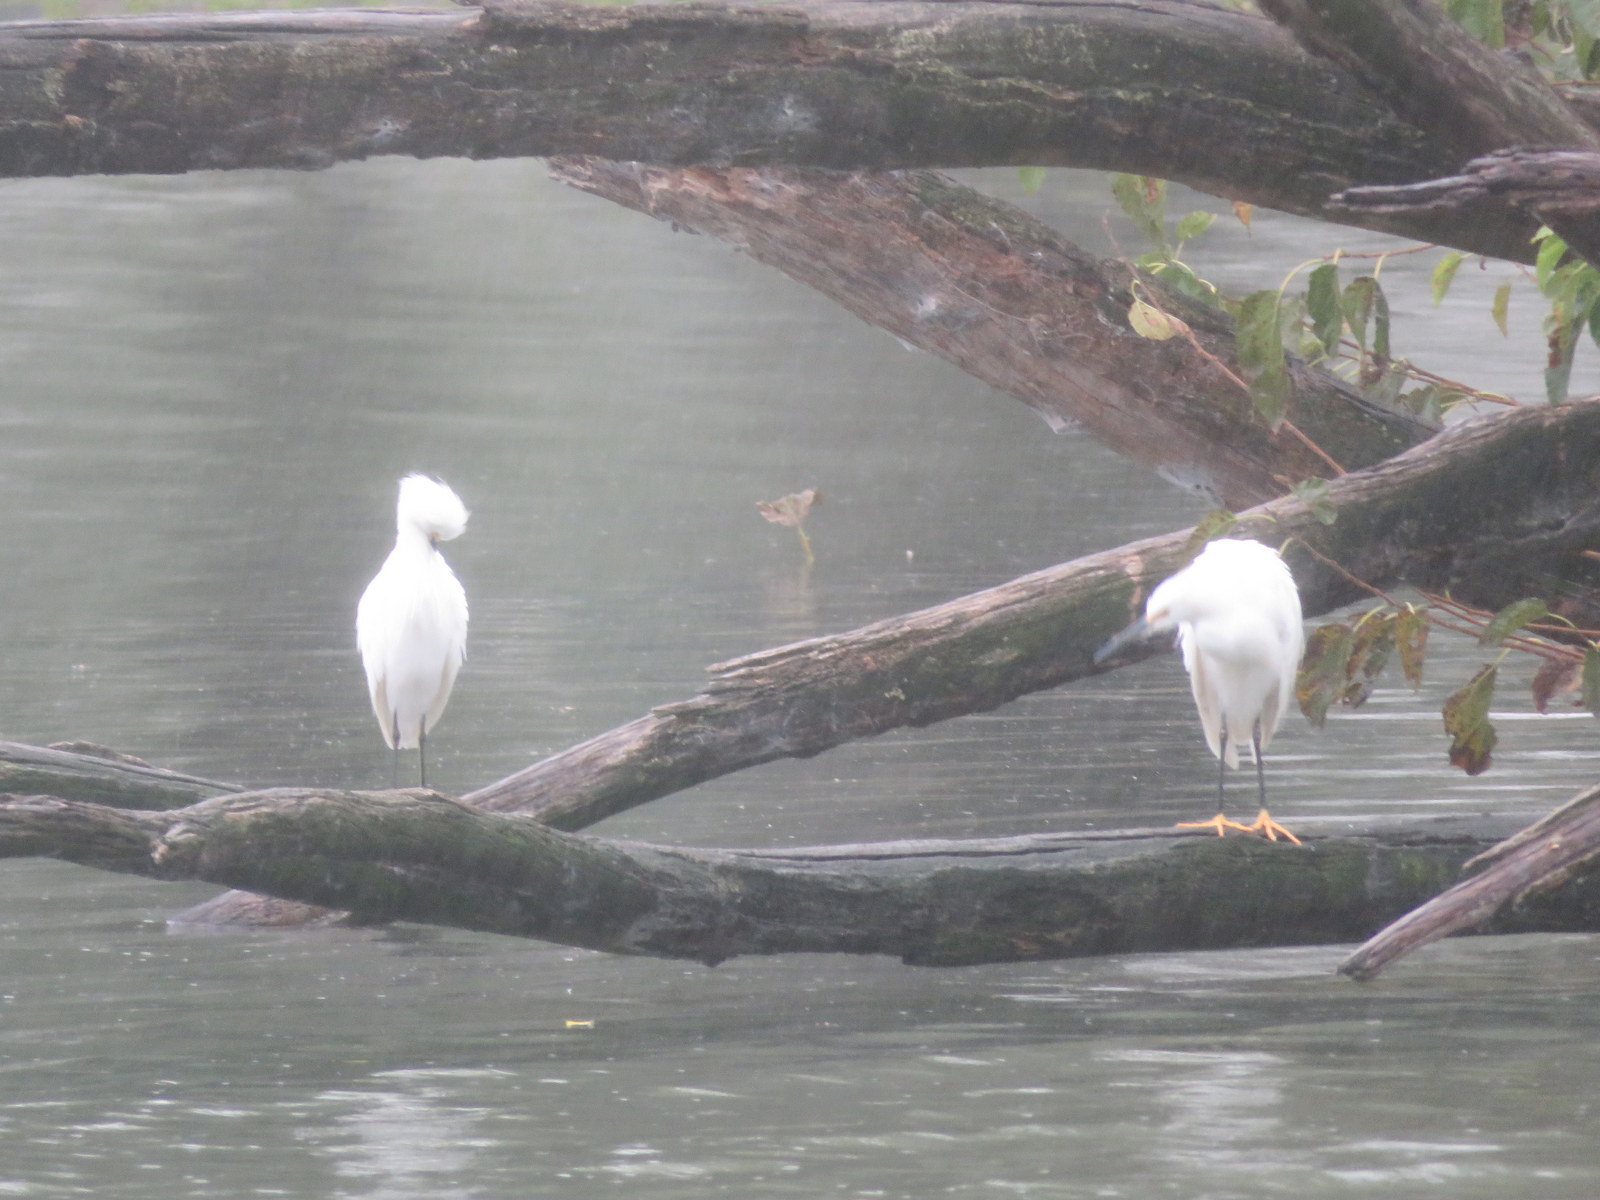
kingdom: Animalia
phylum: Chordata
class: Aves
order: Pelecaniformes
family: Ardeidae
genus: Egretta
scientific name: Egretta thula
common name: Snowy egret
